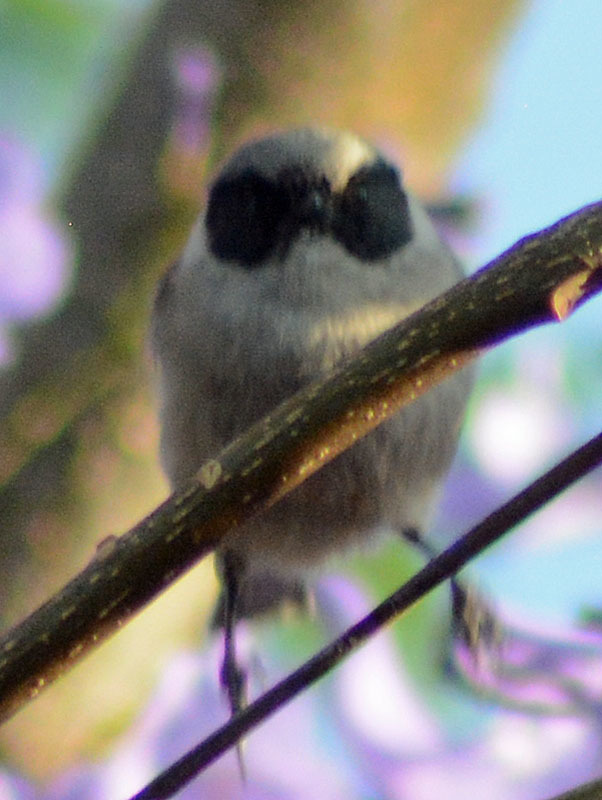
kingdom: Animalia
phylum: Chordata
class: Aves
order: Passeriformes
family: Aegithalidae
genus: Psaltriparus
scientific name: Psaltriparus minimus
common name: American bushtit
